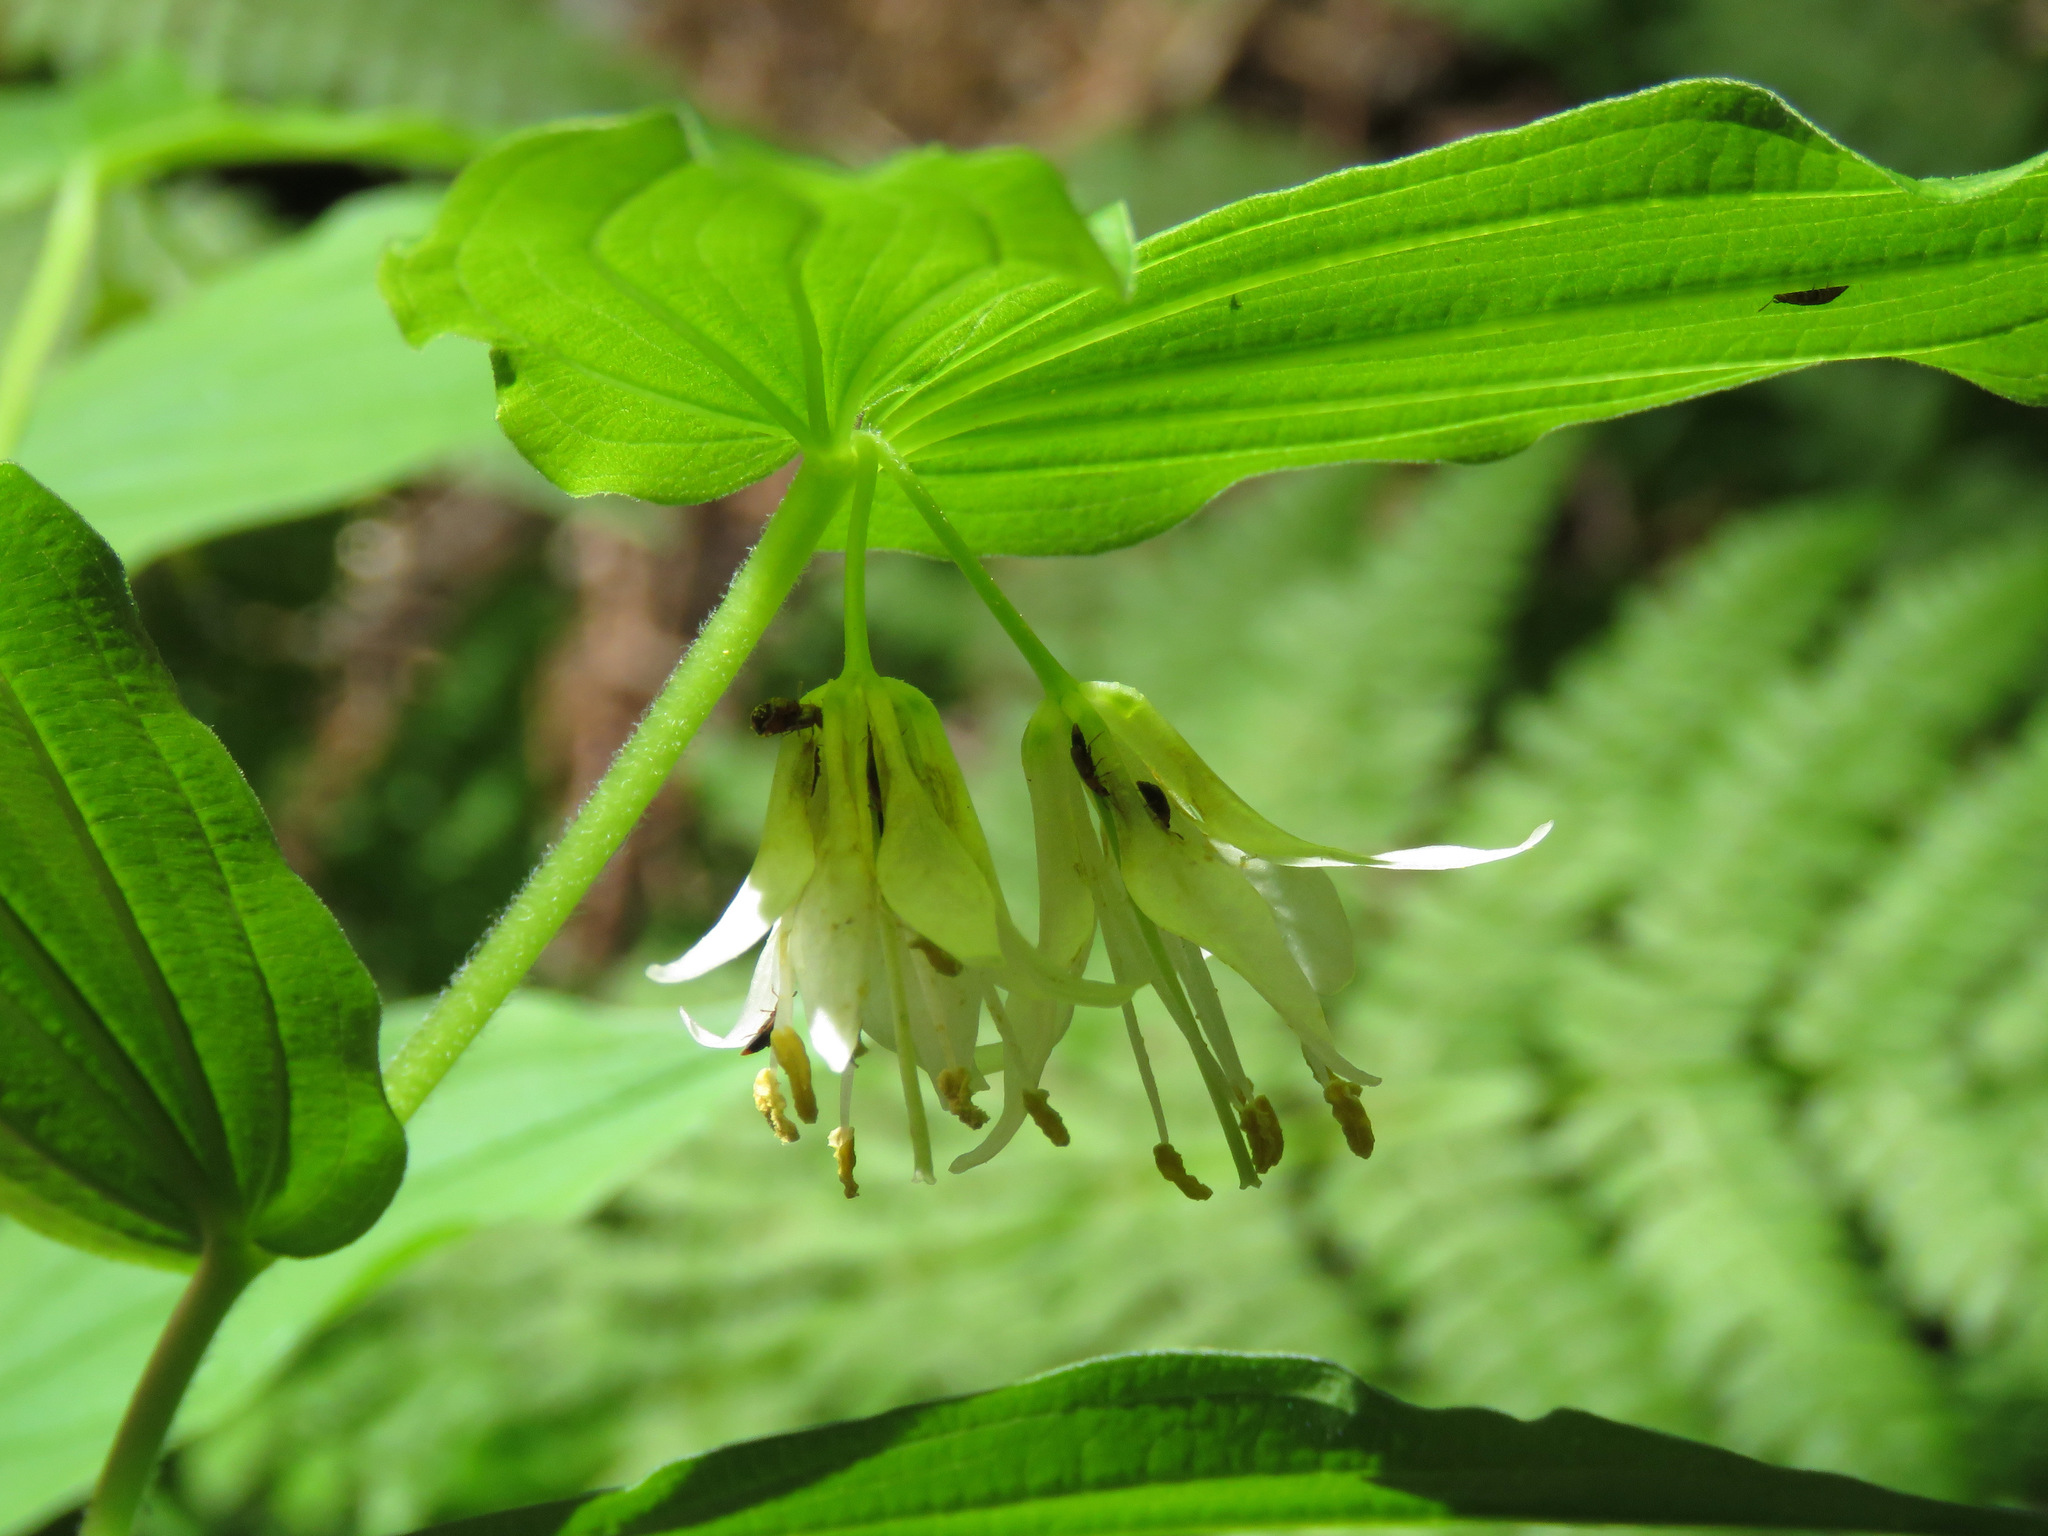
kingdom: Plantae
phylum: Tracheophyta
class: Liliopsida
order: Liliales
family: Liliaceae
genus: Prosartes
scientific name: Prosartes hookeri
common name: Fairy-bells
